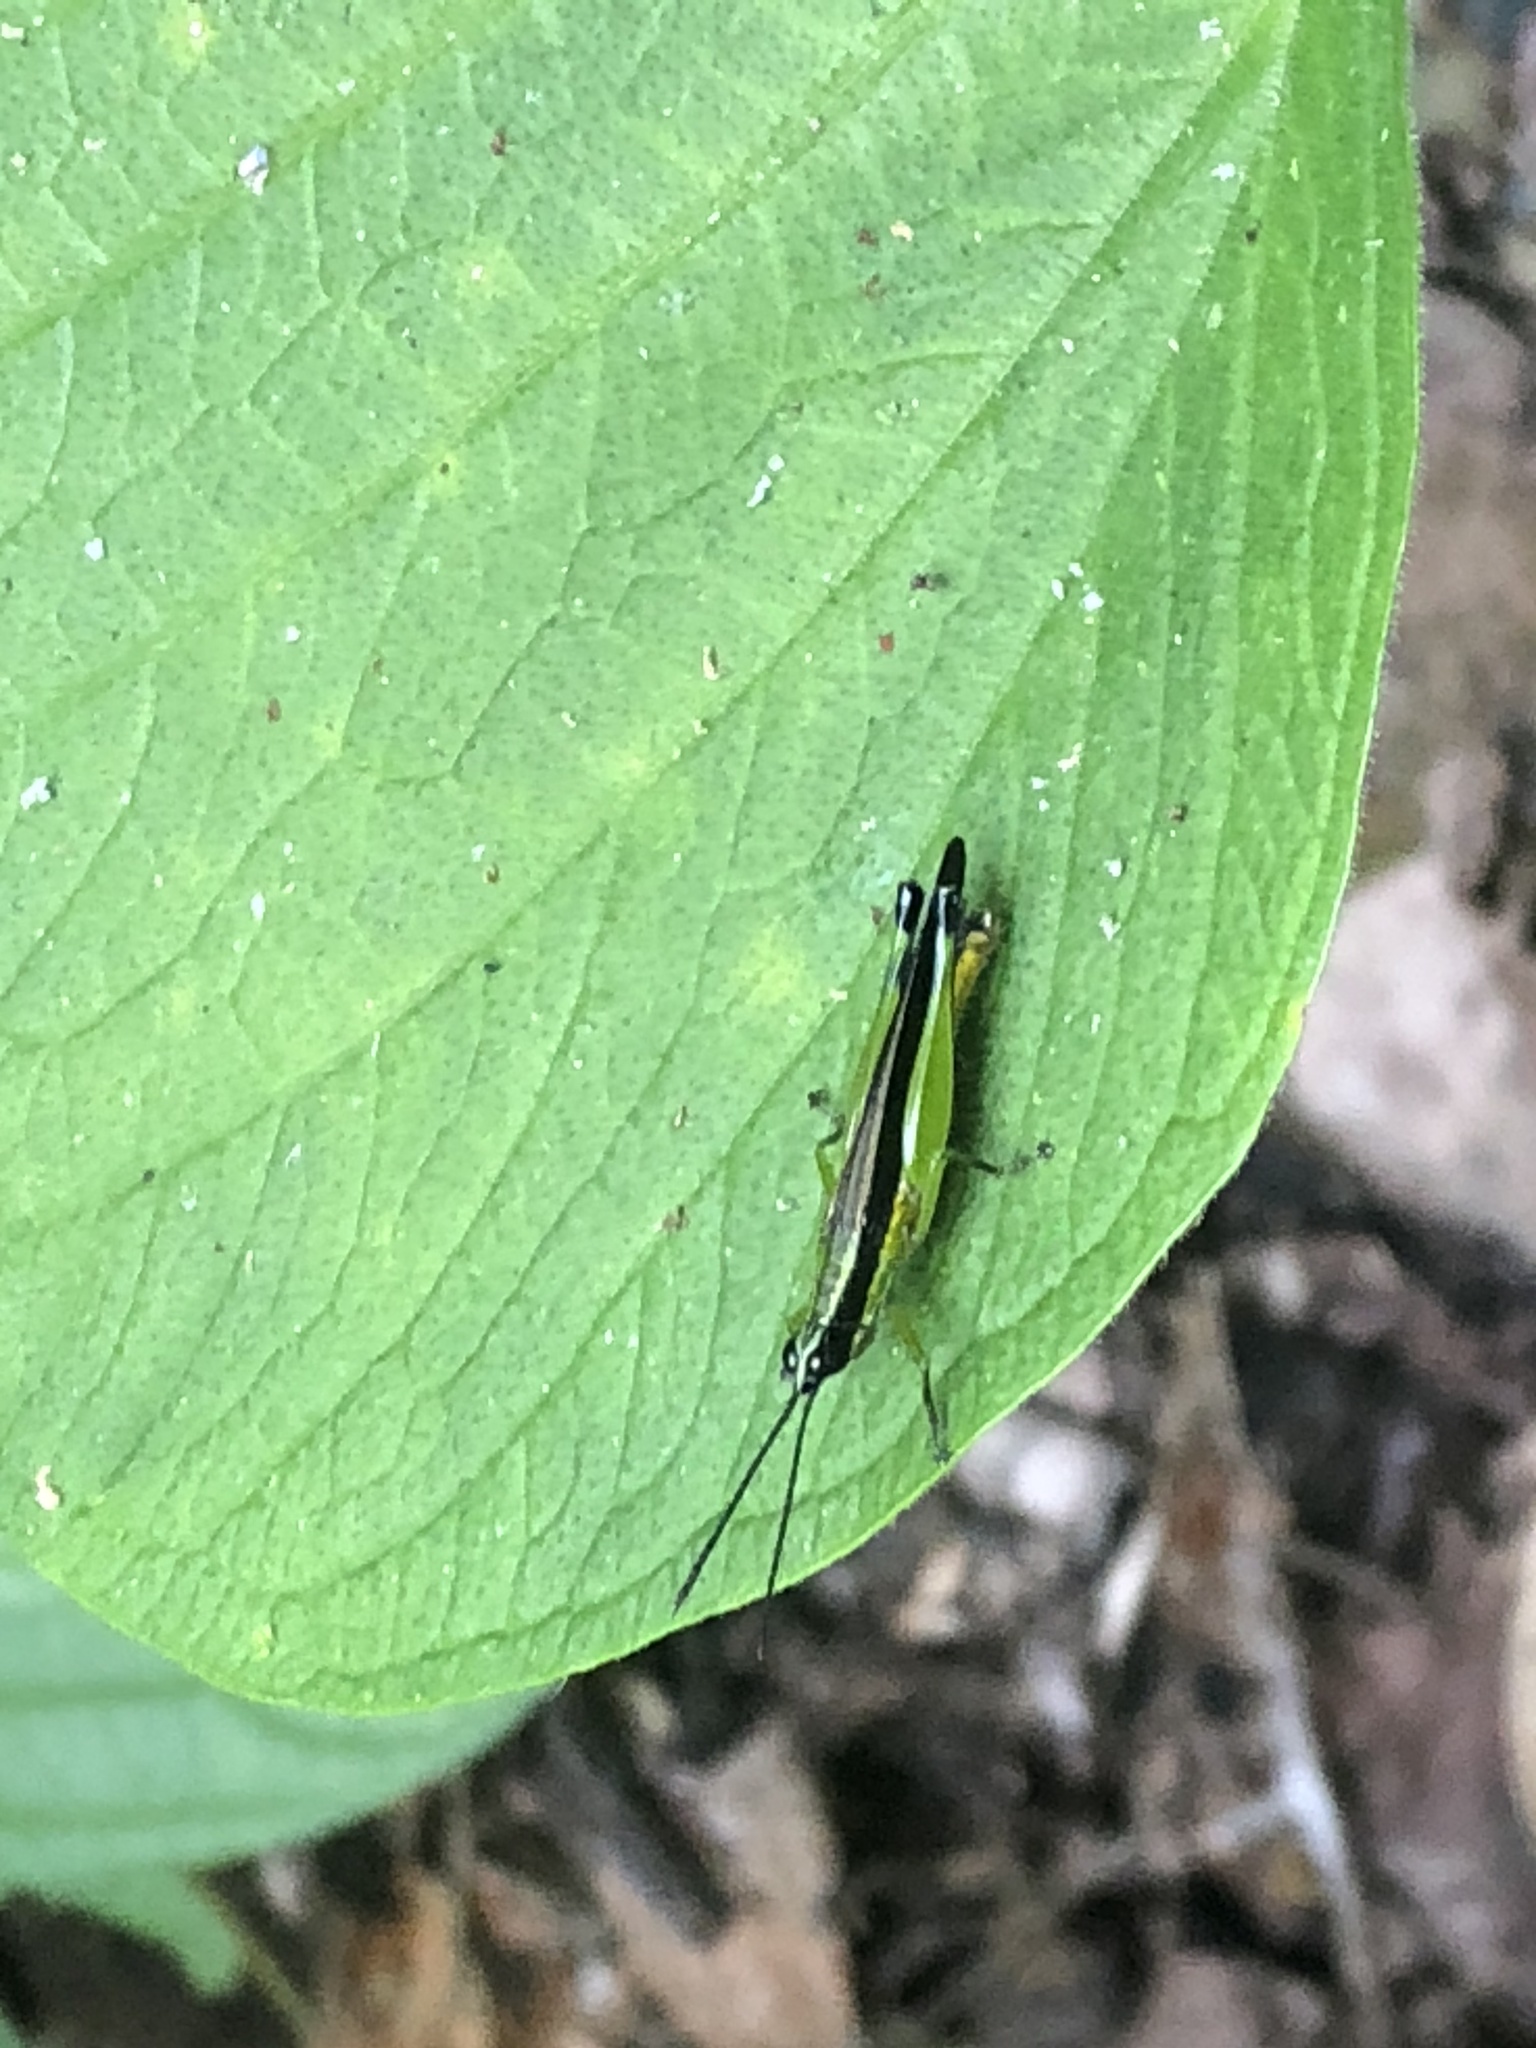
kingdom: Animalia
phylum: Arthropoda
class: Insecta
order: Orthoptera
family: Acrididae
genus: Stenopola
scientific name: Stenopola boliviana
